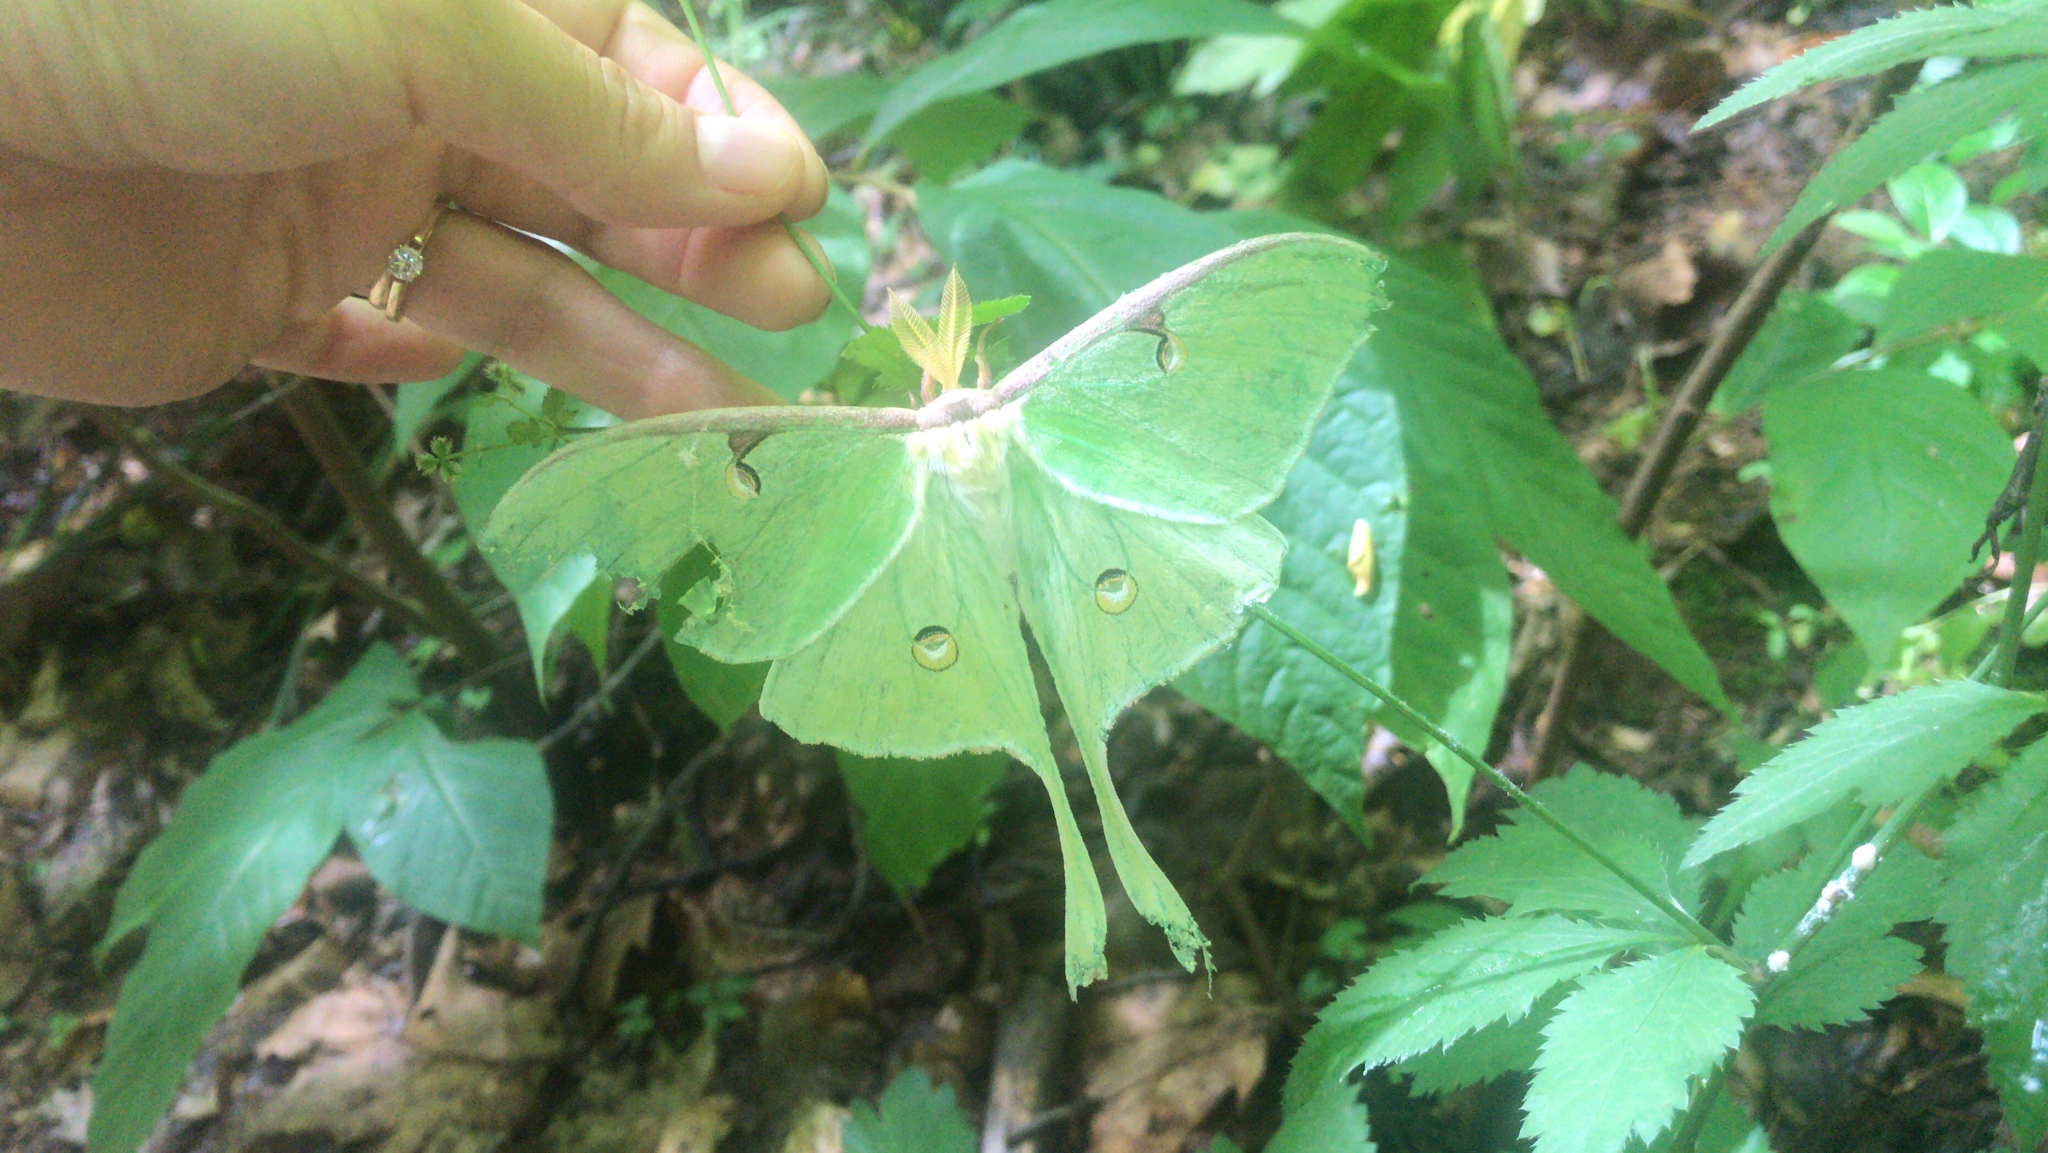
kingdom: Animalia
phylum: Arthropoda
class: Insecta
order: Lepidoptera
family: Saturniidae
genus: Actias
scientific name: Actias luna
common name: Luna moth
